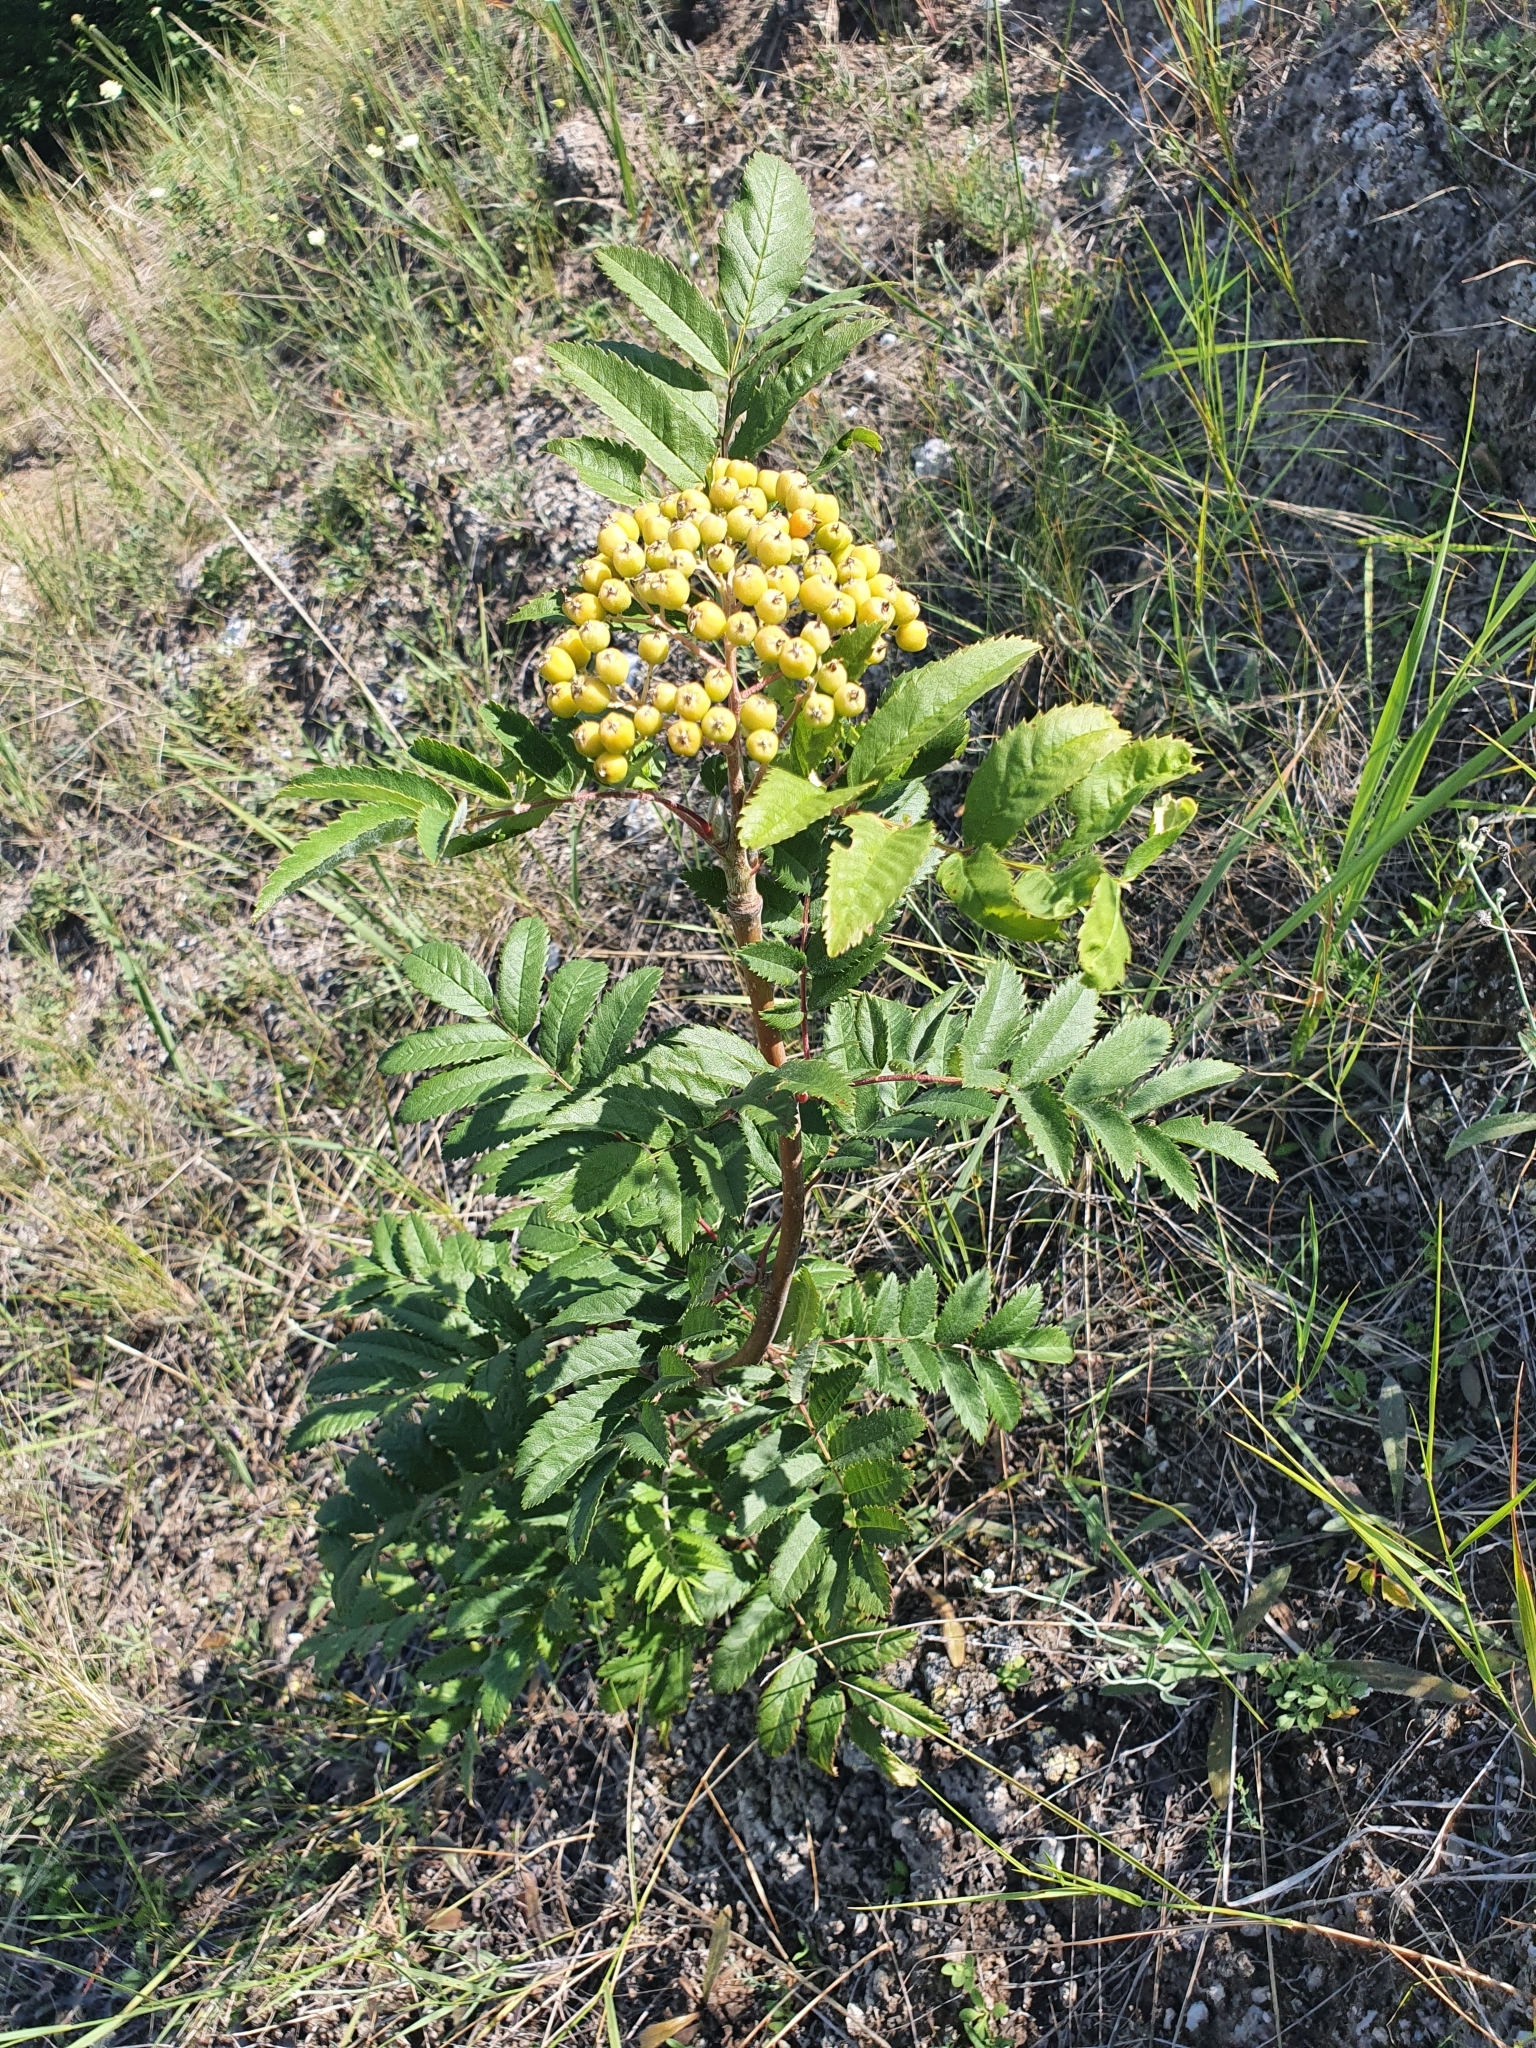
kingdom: Plantae
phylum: Tracheophyta
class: Magnoliopsida
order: Rosales
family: Rosaceae
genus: Sorbus
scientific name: Sorbus aucuparia
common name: Rowan
